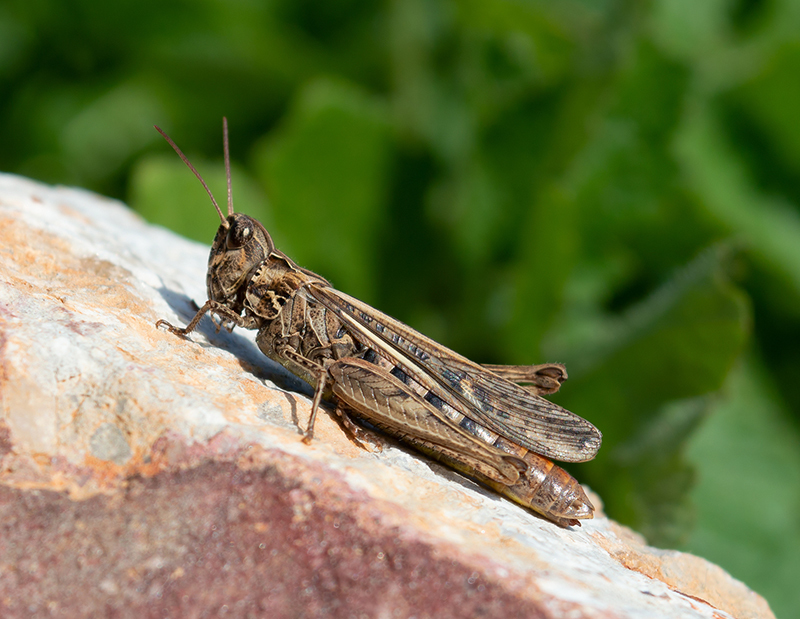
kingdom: Animalia
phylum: Arthropoda
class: Insecta
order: Orthoptera
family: Acrididae
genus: Chorthippus
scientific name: Chorthippus maritimus
